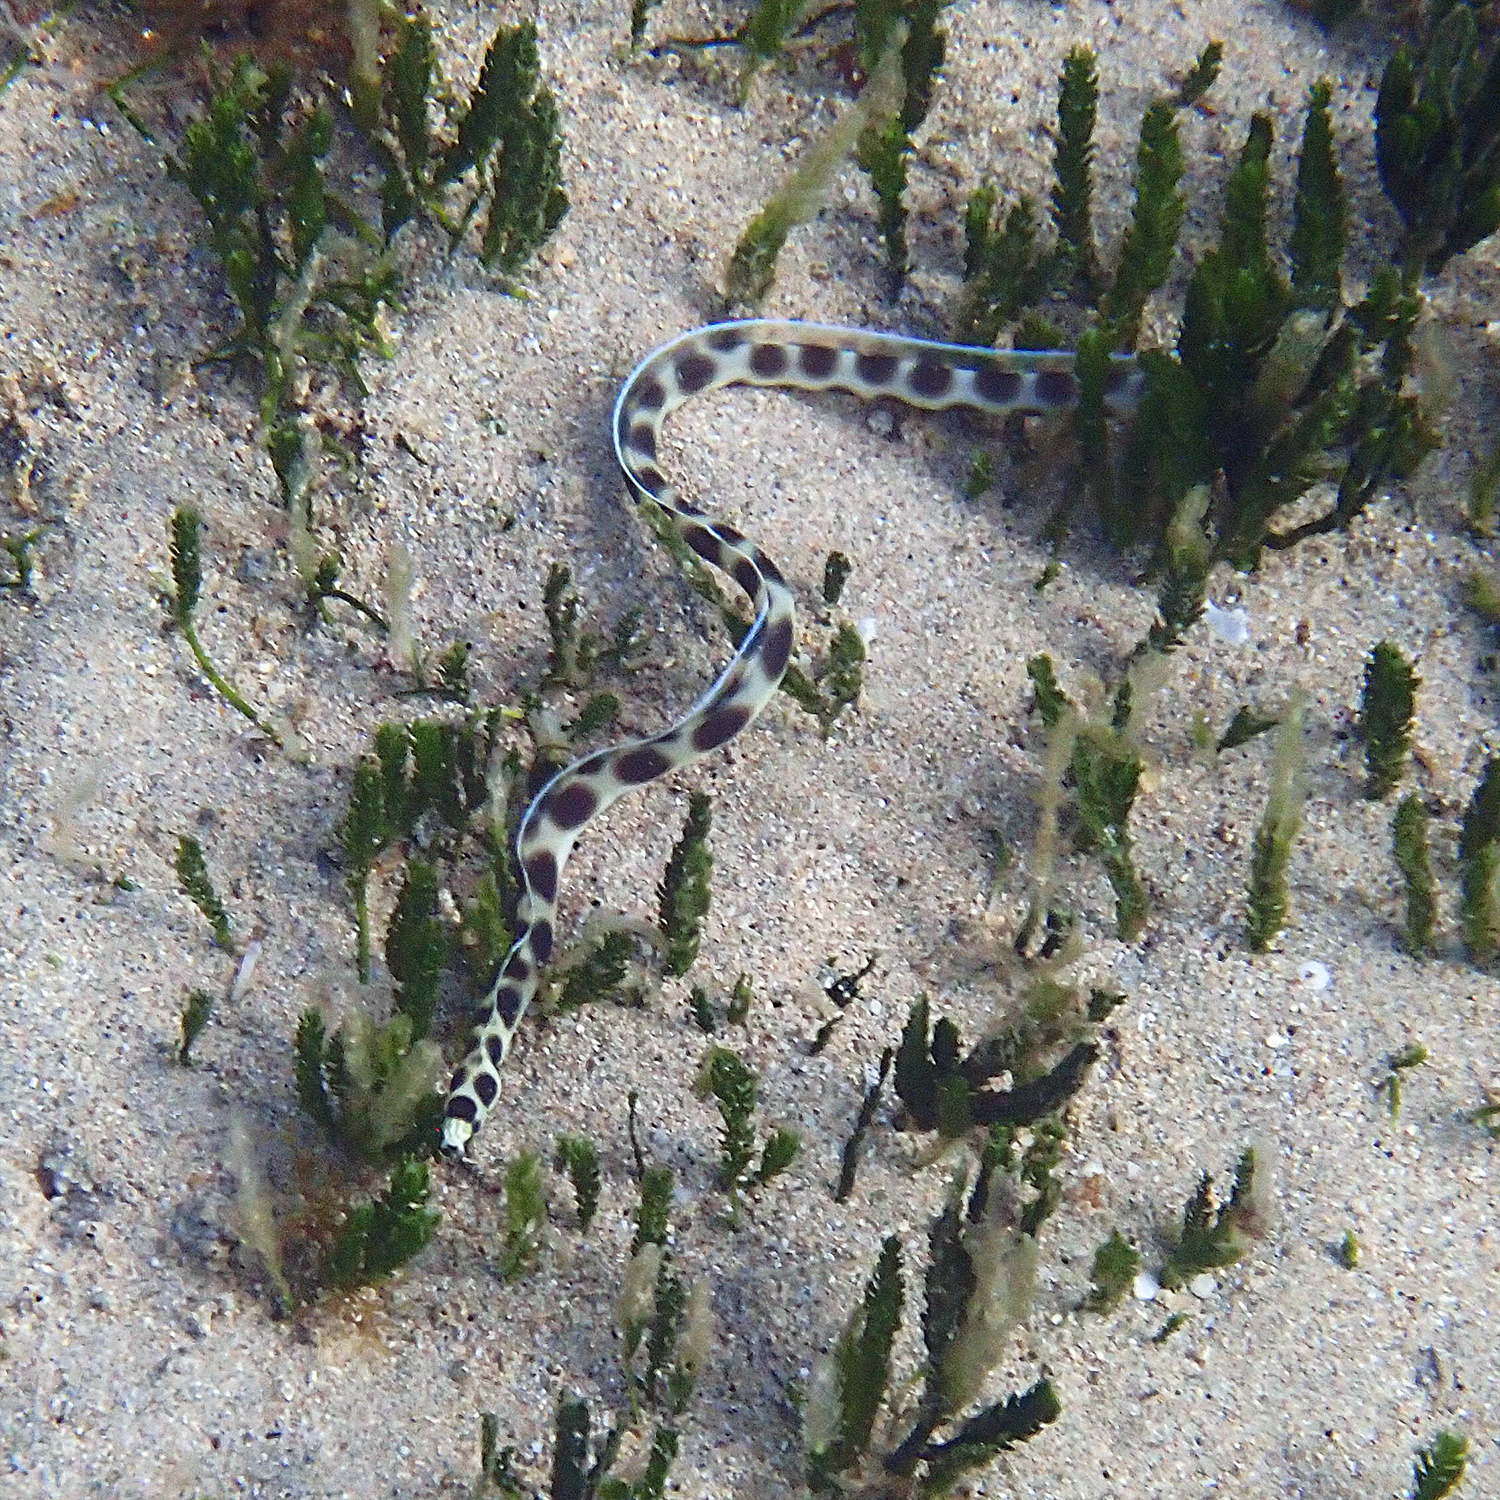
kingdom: Animalia
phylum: Chordata
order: Anguilliformes
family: Ophichthidae
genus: Myrichthys
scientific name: Myrichthys maculosus
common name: Spotted snake eel
